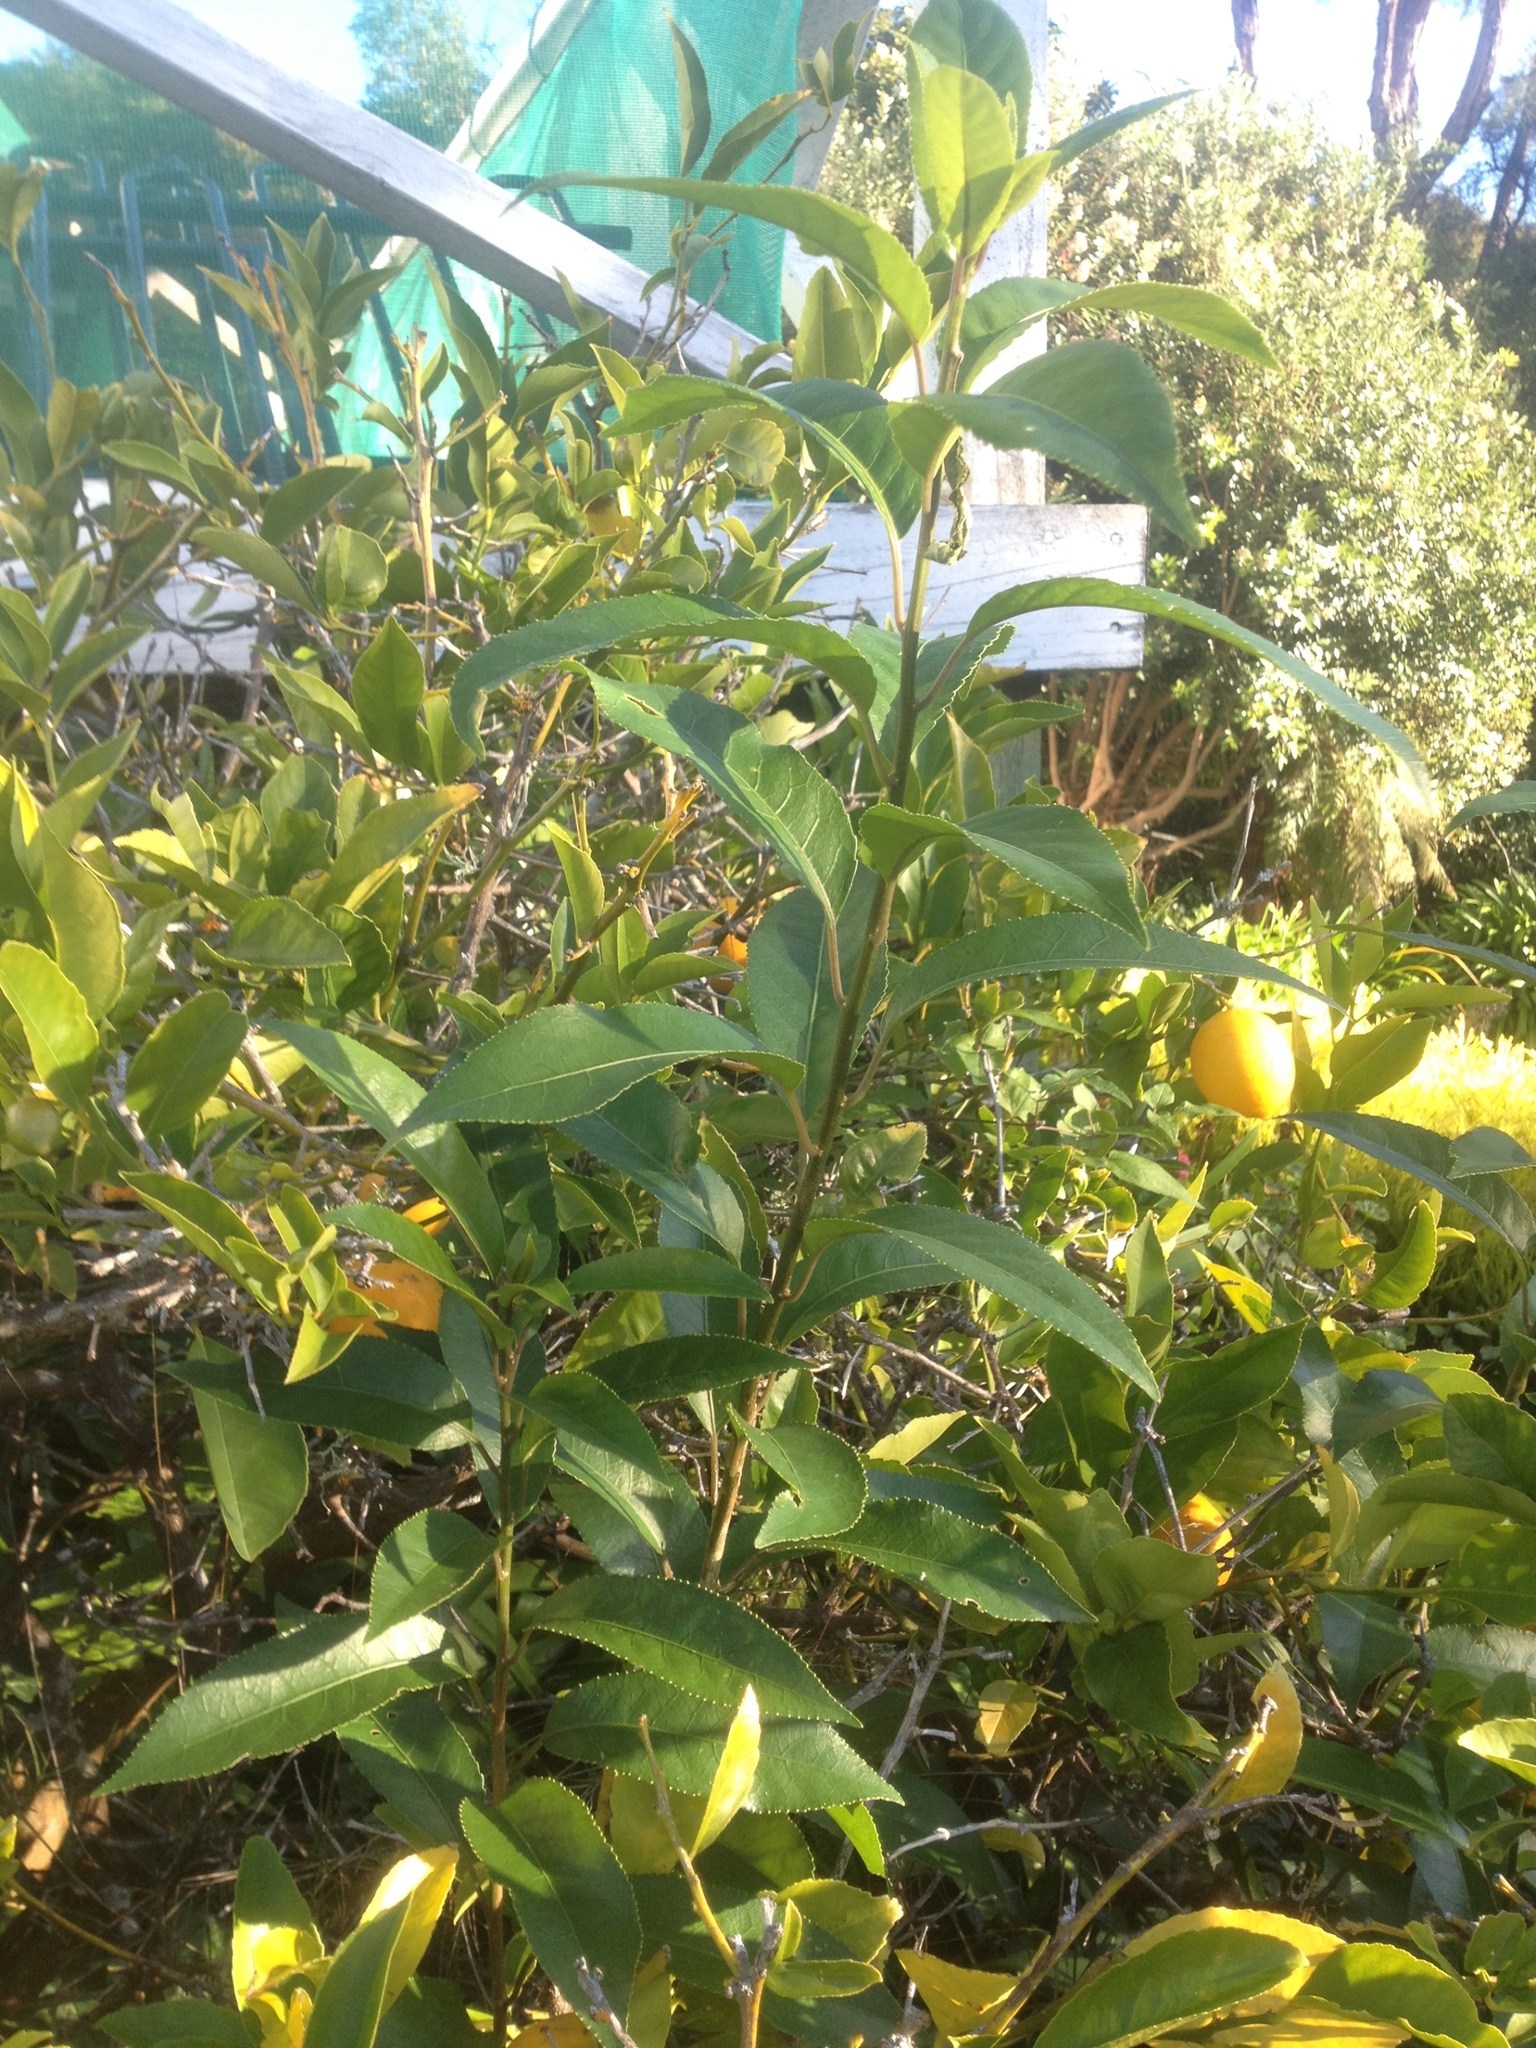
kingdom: Plantae
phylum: Tracheophyta
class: Magnoliopsida
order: Malpighiales
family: Violaceae
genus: Melicytus
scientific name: Melicytus ramiflorus
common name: Mahoe
